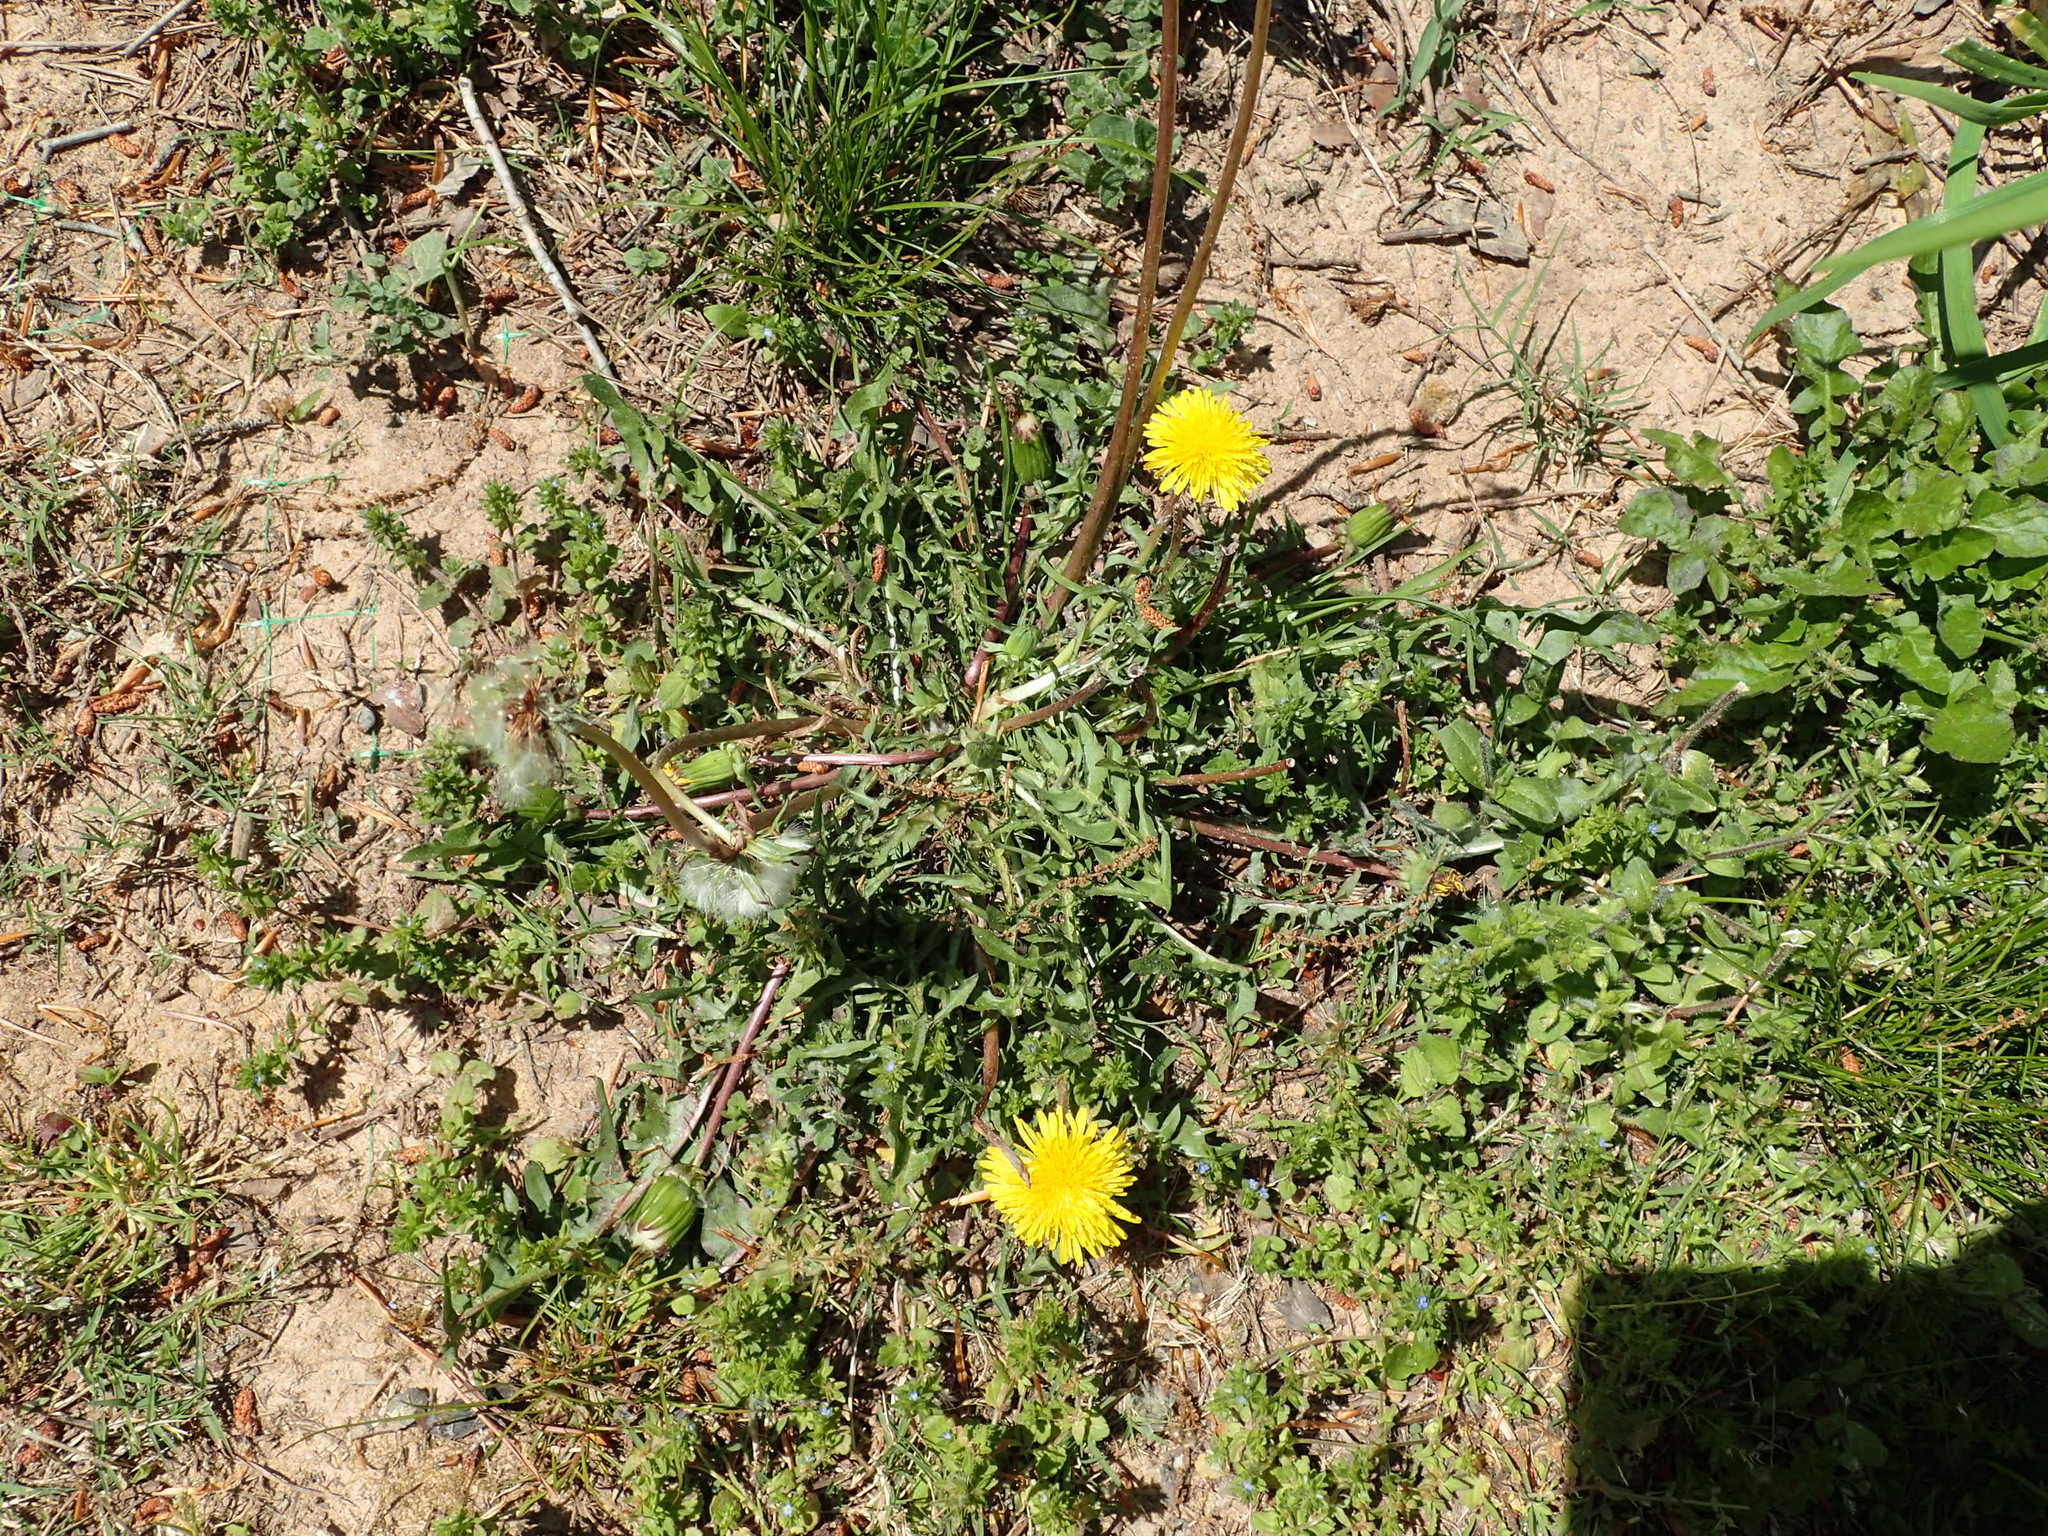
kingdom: Plantae
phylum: Tracheophyta
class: Magnoliopsida
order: Asterales
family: Asteraceae
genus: Taraxacum
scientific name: Taraxacum officinale
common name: Common dandelion
